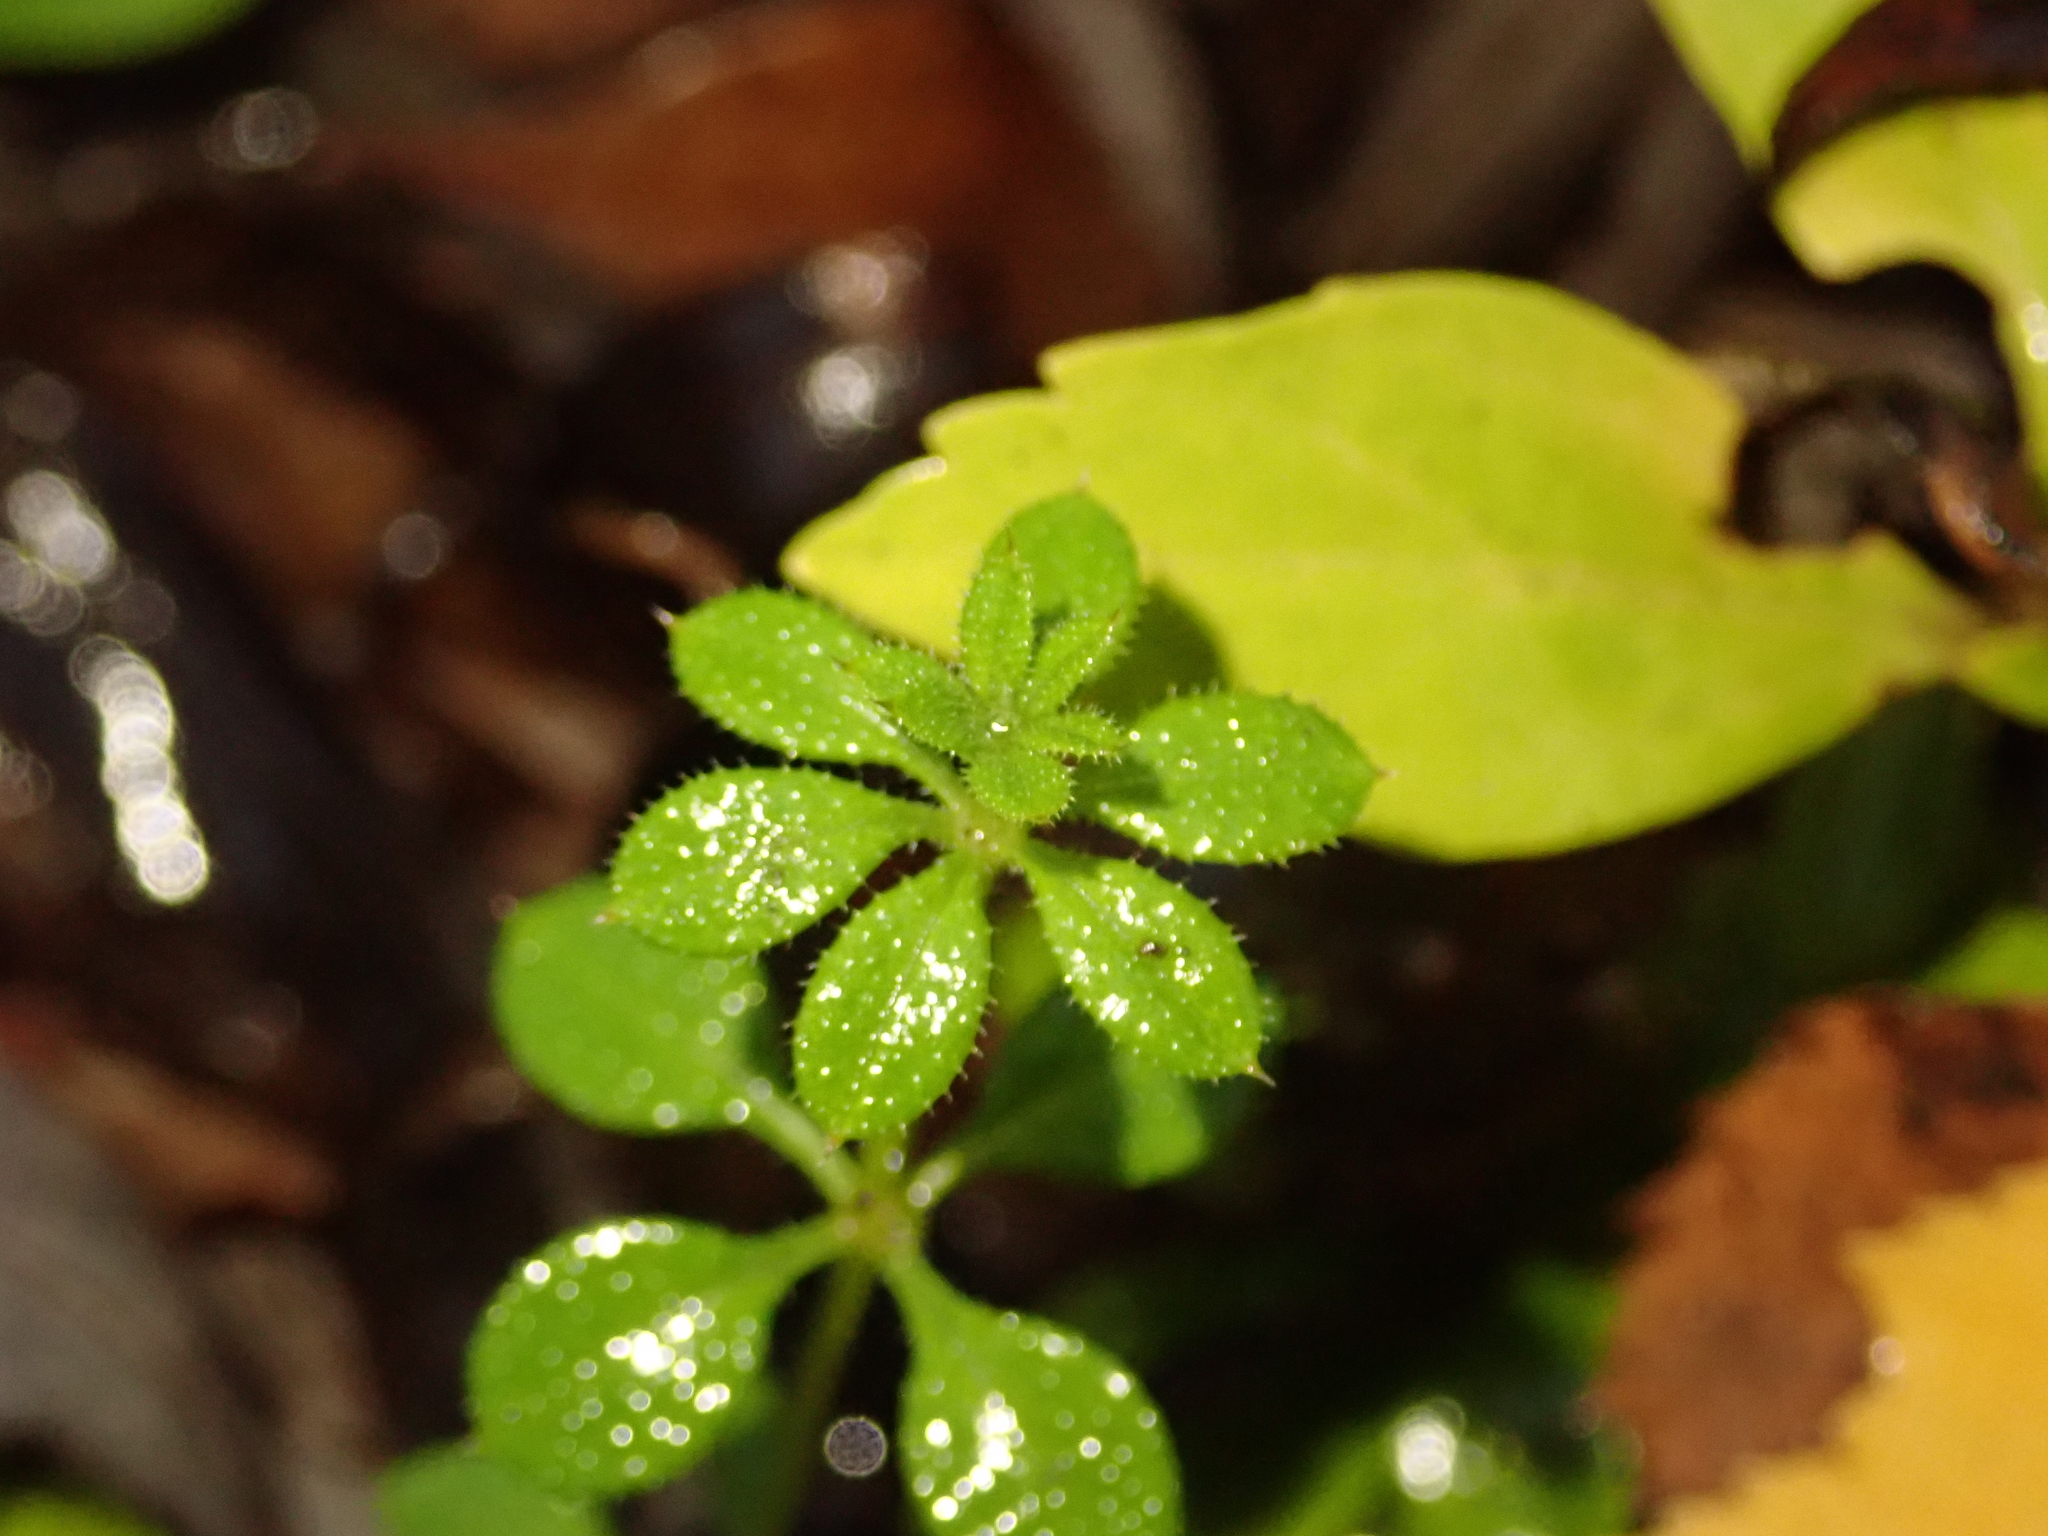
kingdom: Plantae
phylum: Tracheophyta
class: Magnoliopsida
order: Gentianales
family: Rubiaceae
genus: Galium
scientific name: Galium aparine
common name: Cleavers
